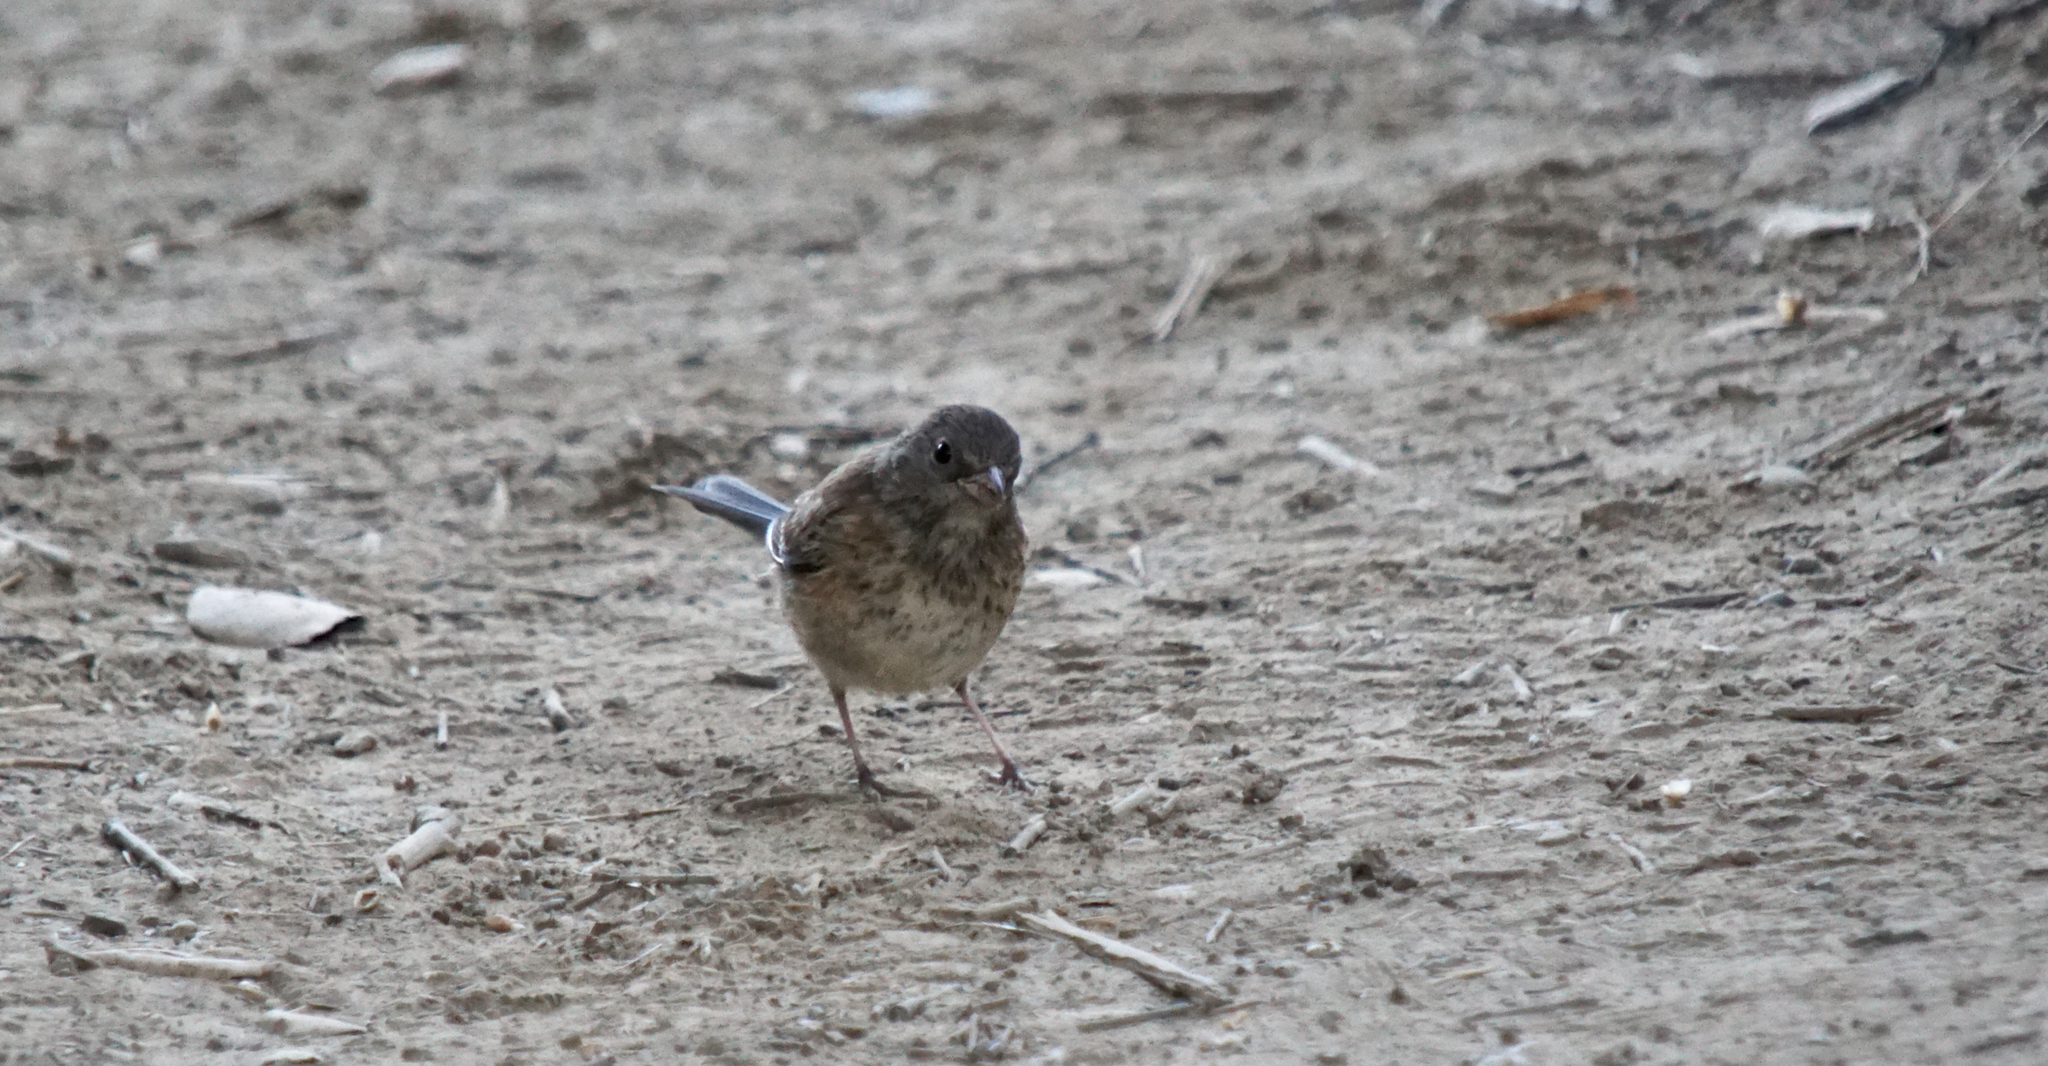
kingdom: Animalia
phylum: Chordata
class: Aves
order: Passeriformes
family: Passerellidae
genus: Junco
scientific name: Junco hyemalis
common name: Dark-eyed junco
